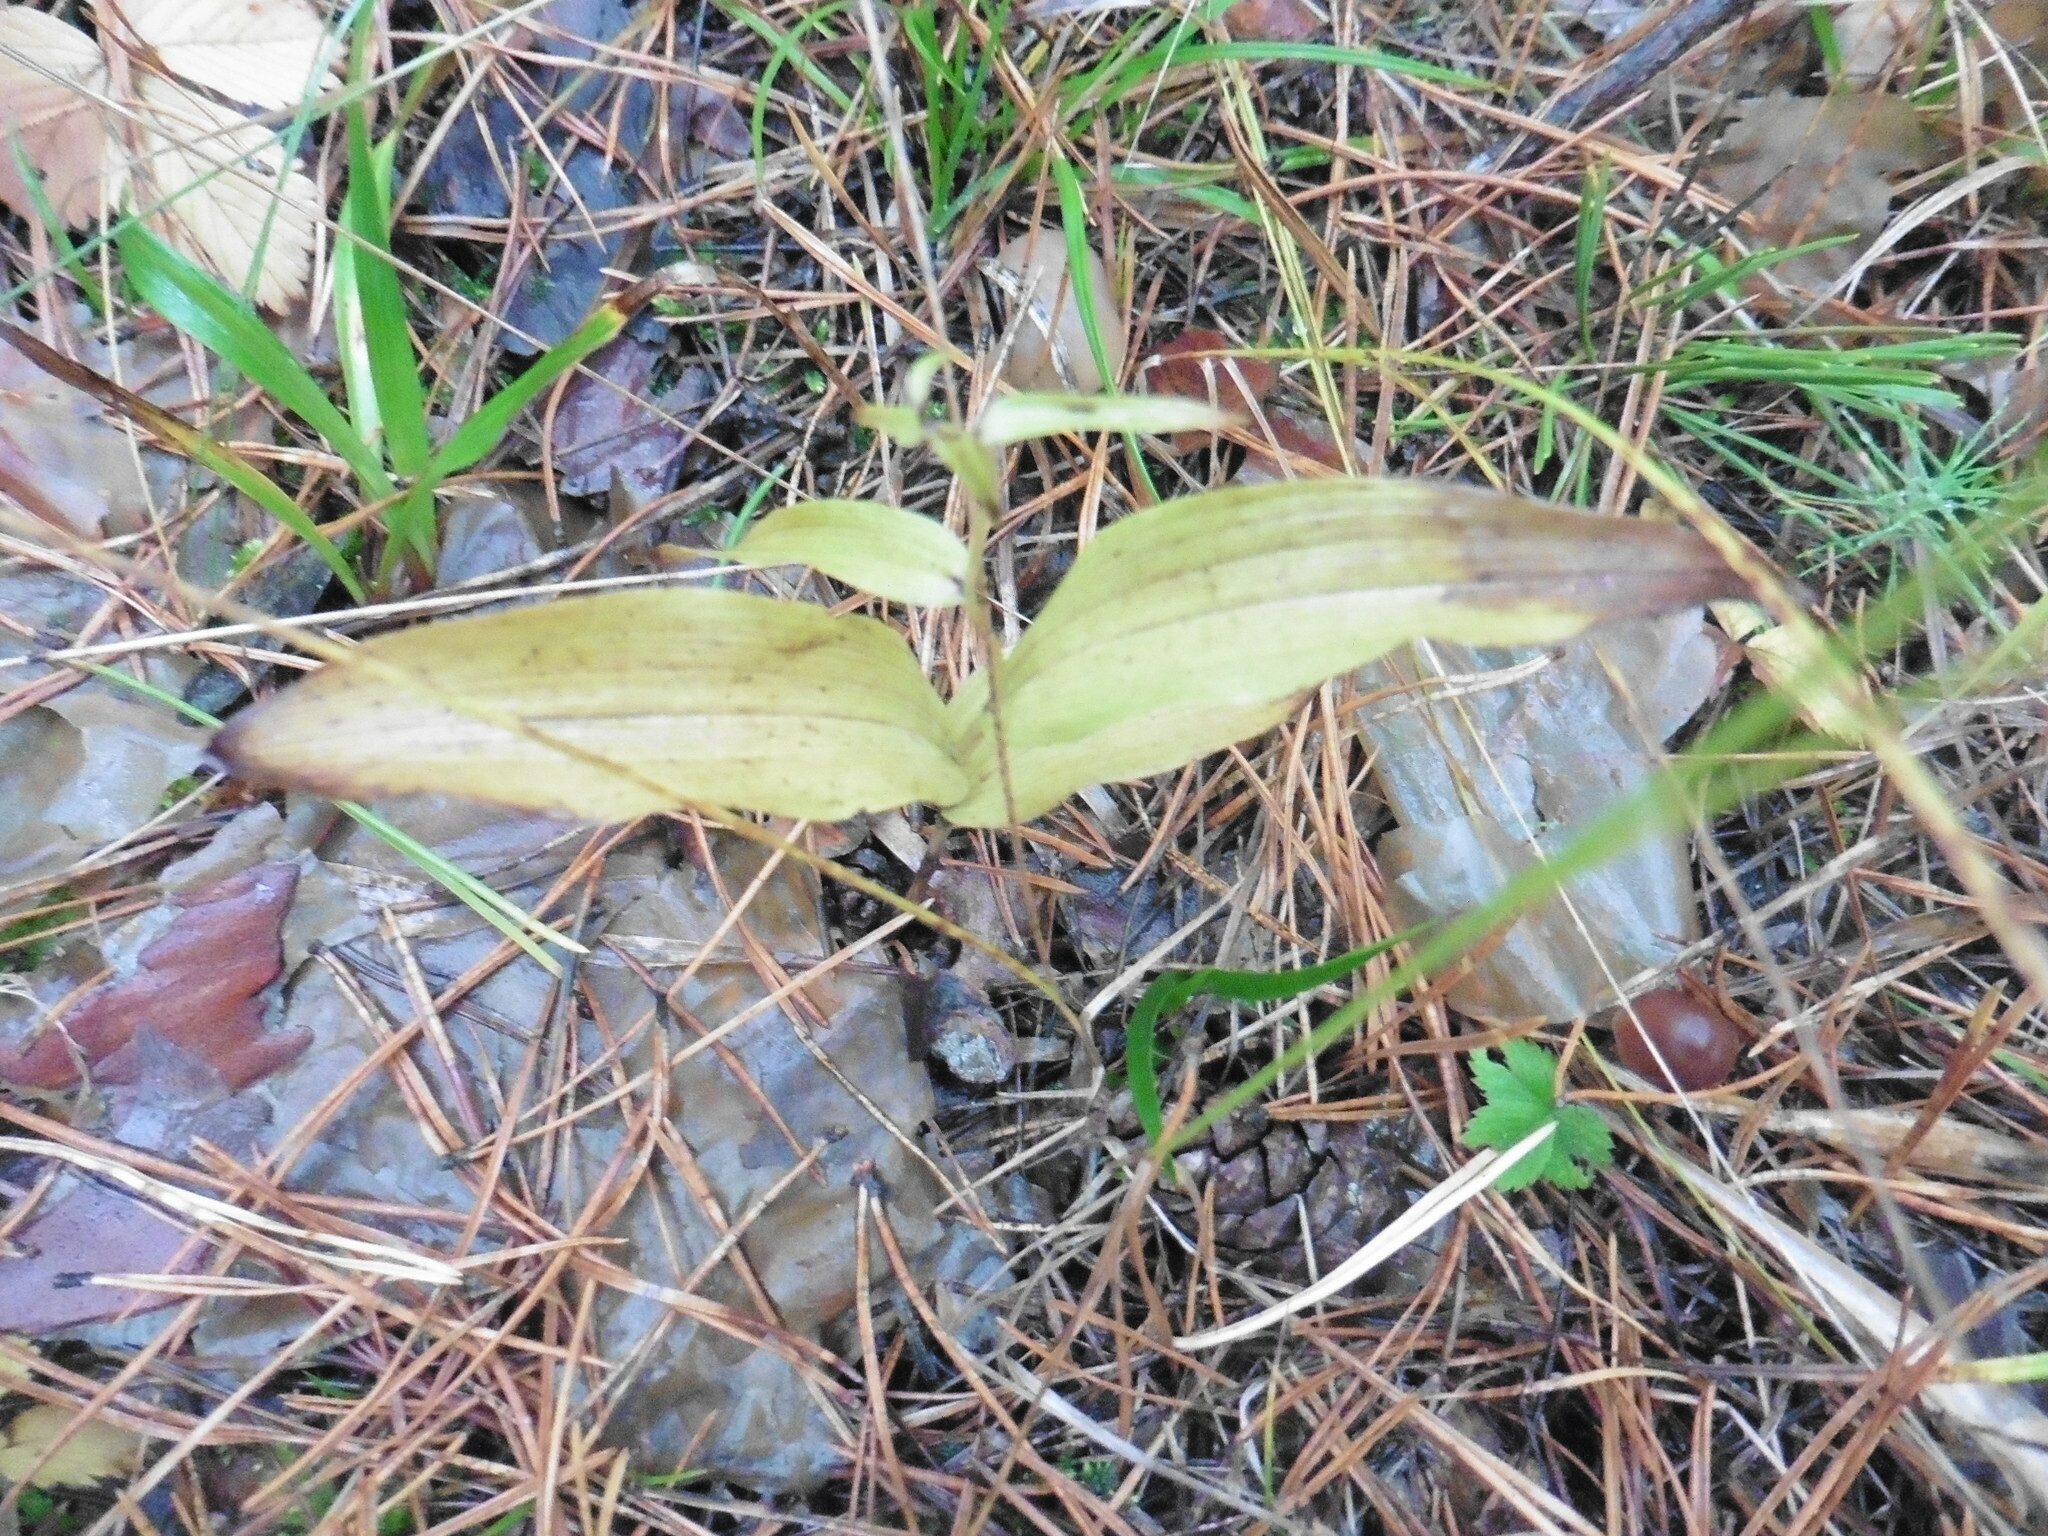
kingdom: Plantae
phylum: Tracheophyta
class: Liliopsida
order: Asparagales
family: Orchidaceae
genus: Epipactis
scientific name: Epipactis helleborine
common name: Broad-leaved helleborine
